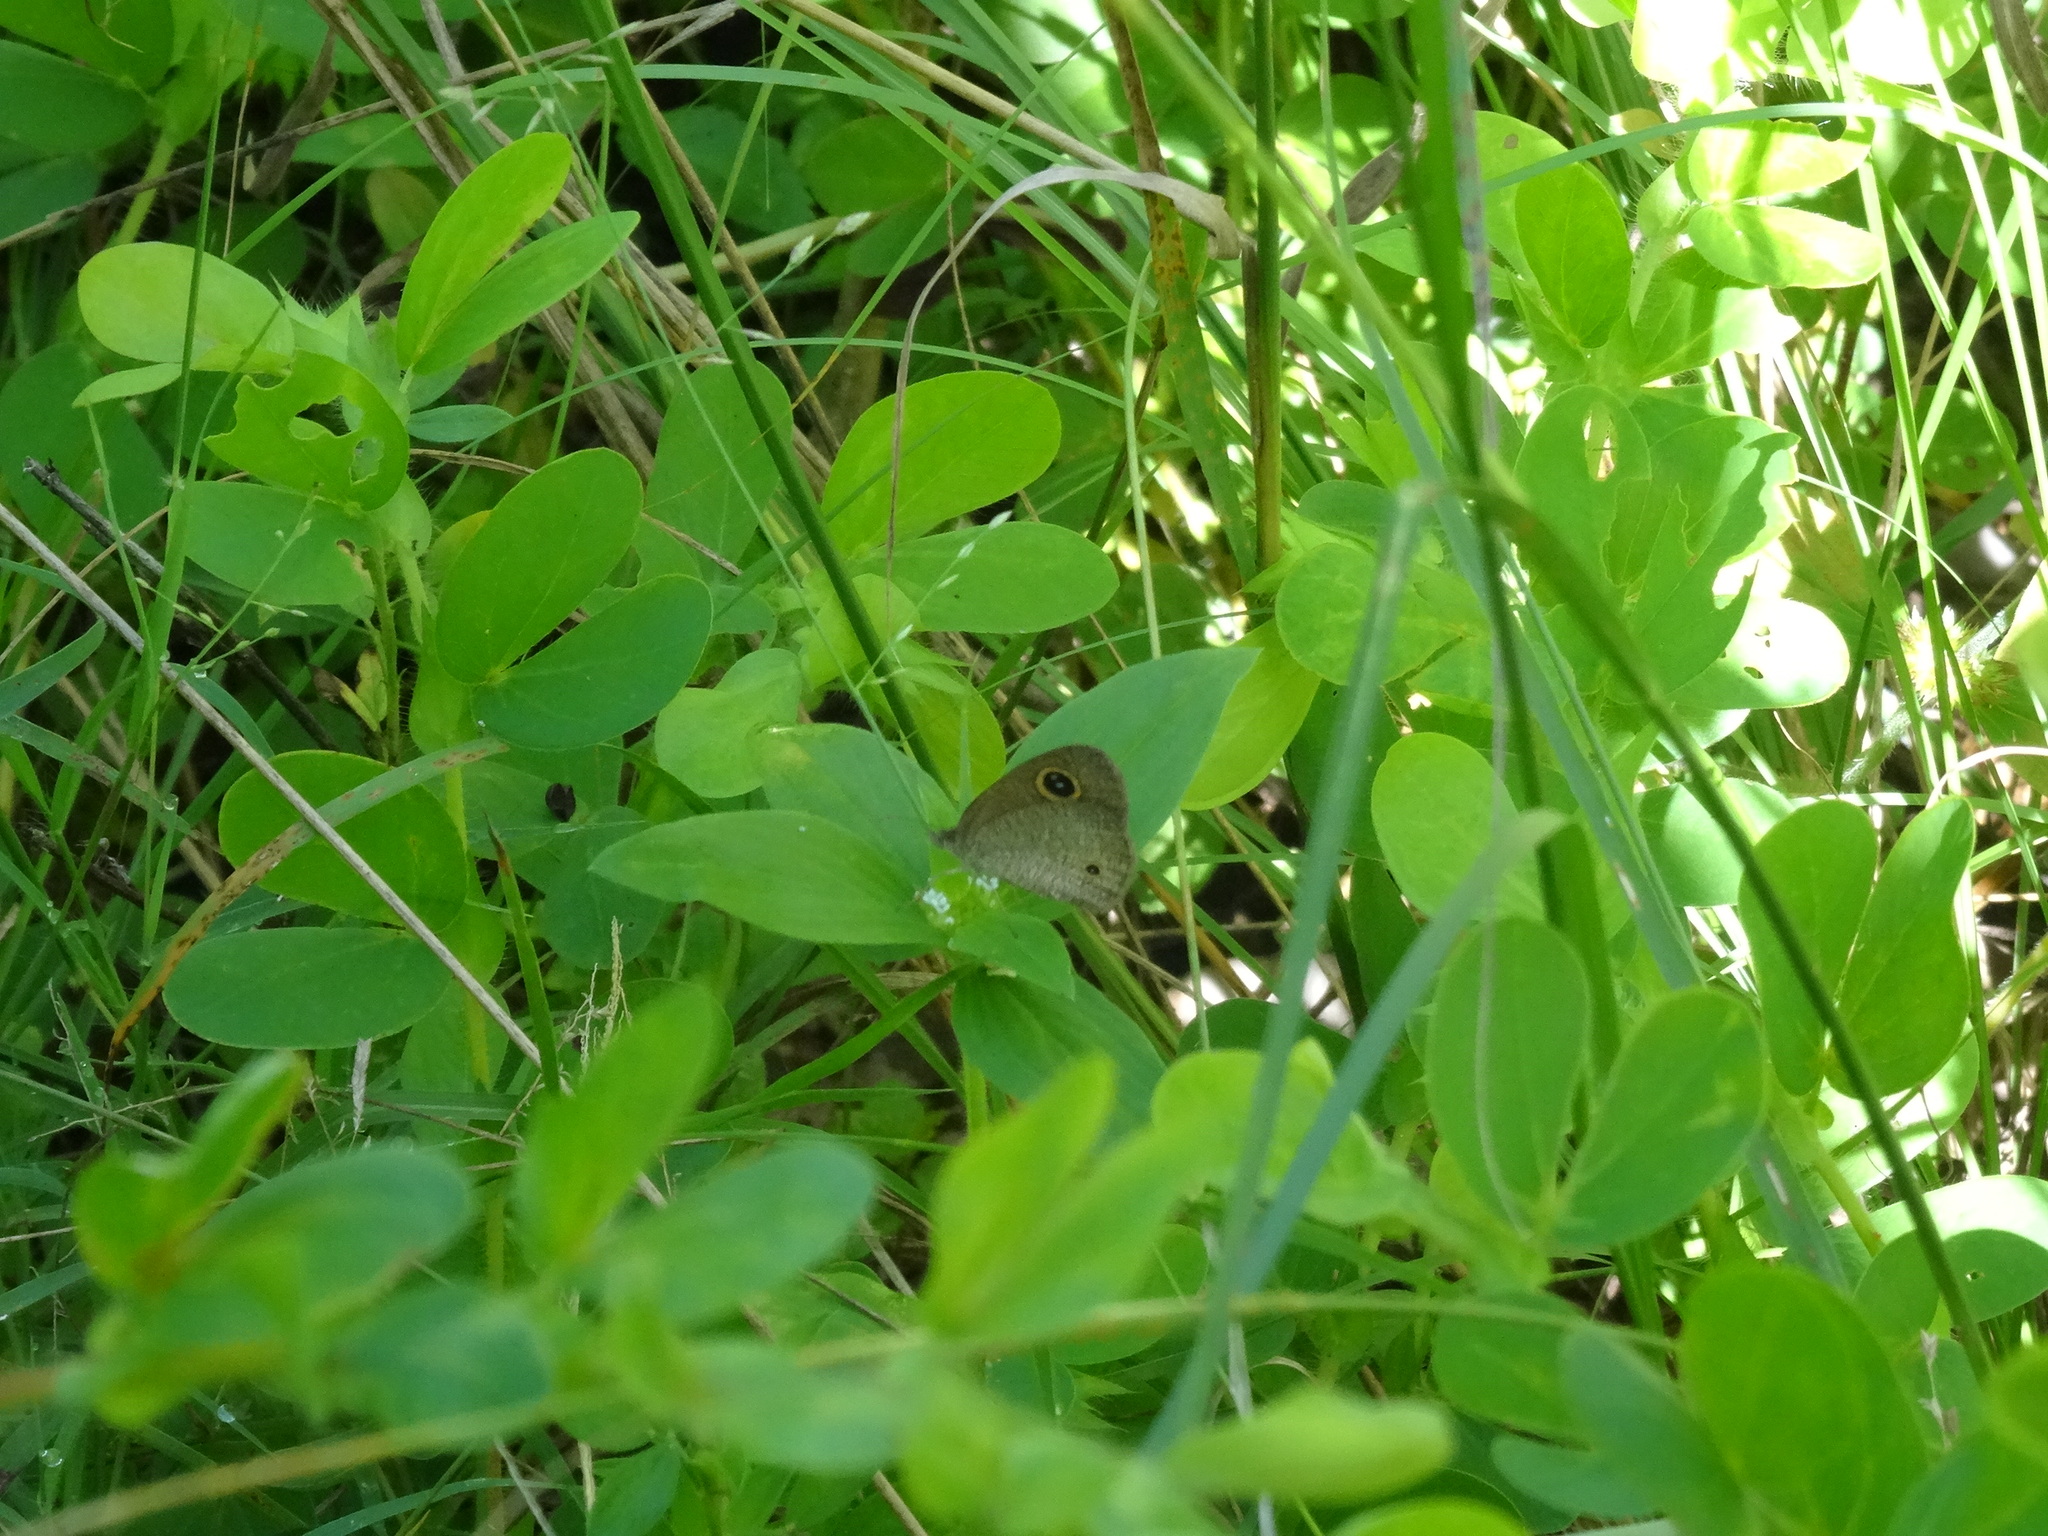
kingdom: Animalia
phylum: Arthropoda
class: Insecta
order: Lepidoptera
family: Nymphalidae
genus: Ypthima
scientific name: Ypthima arctous
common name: Dusky knight
